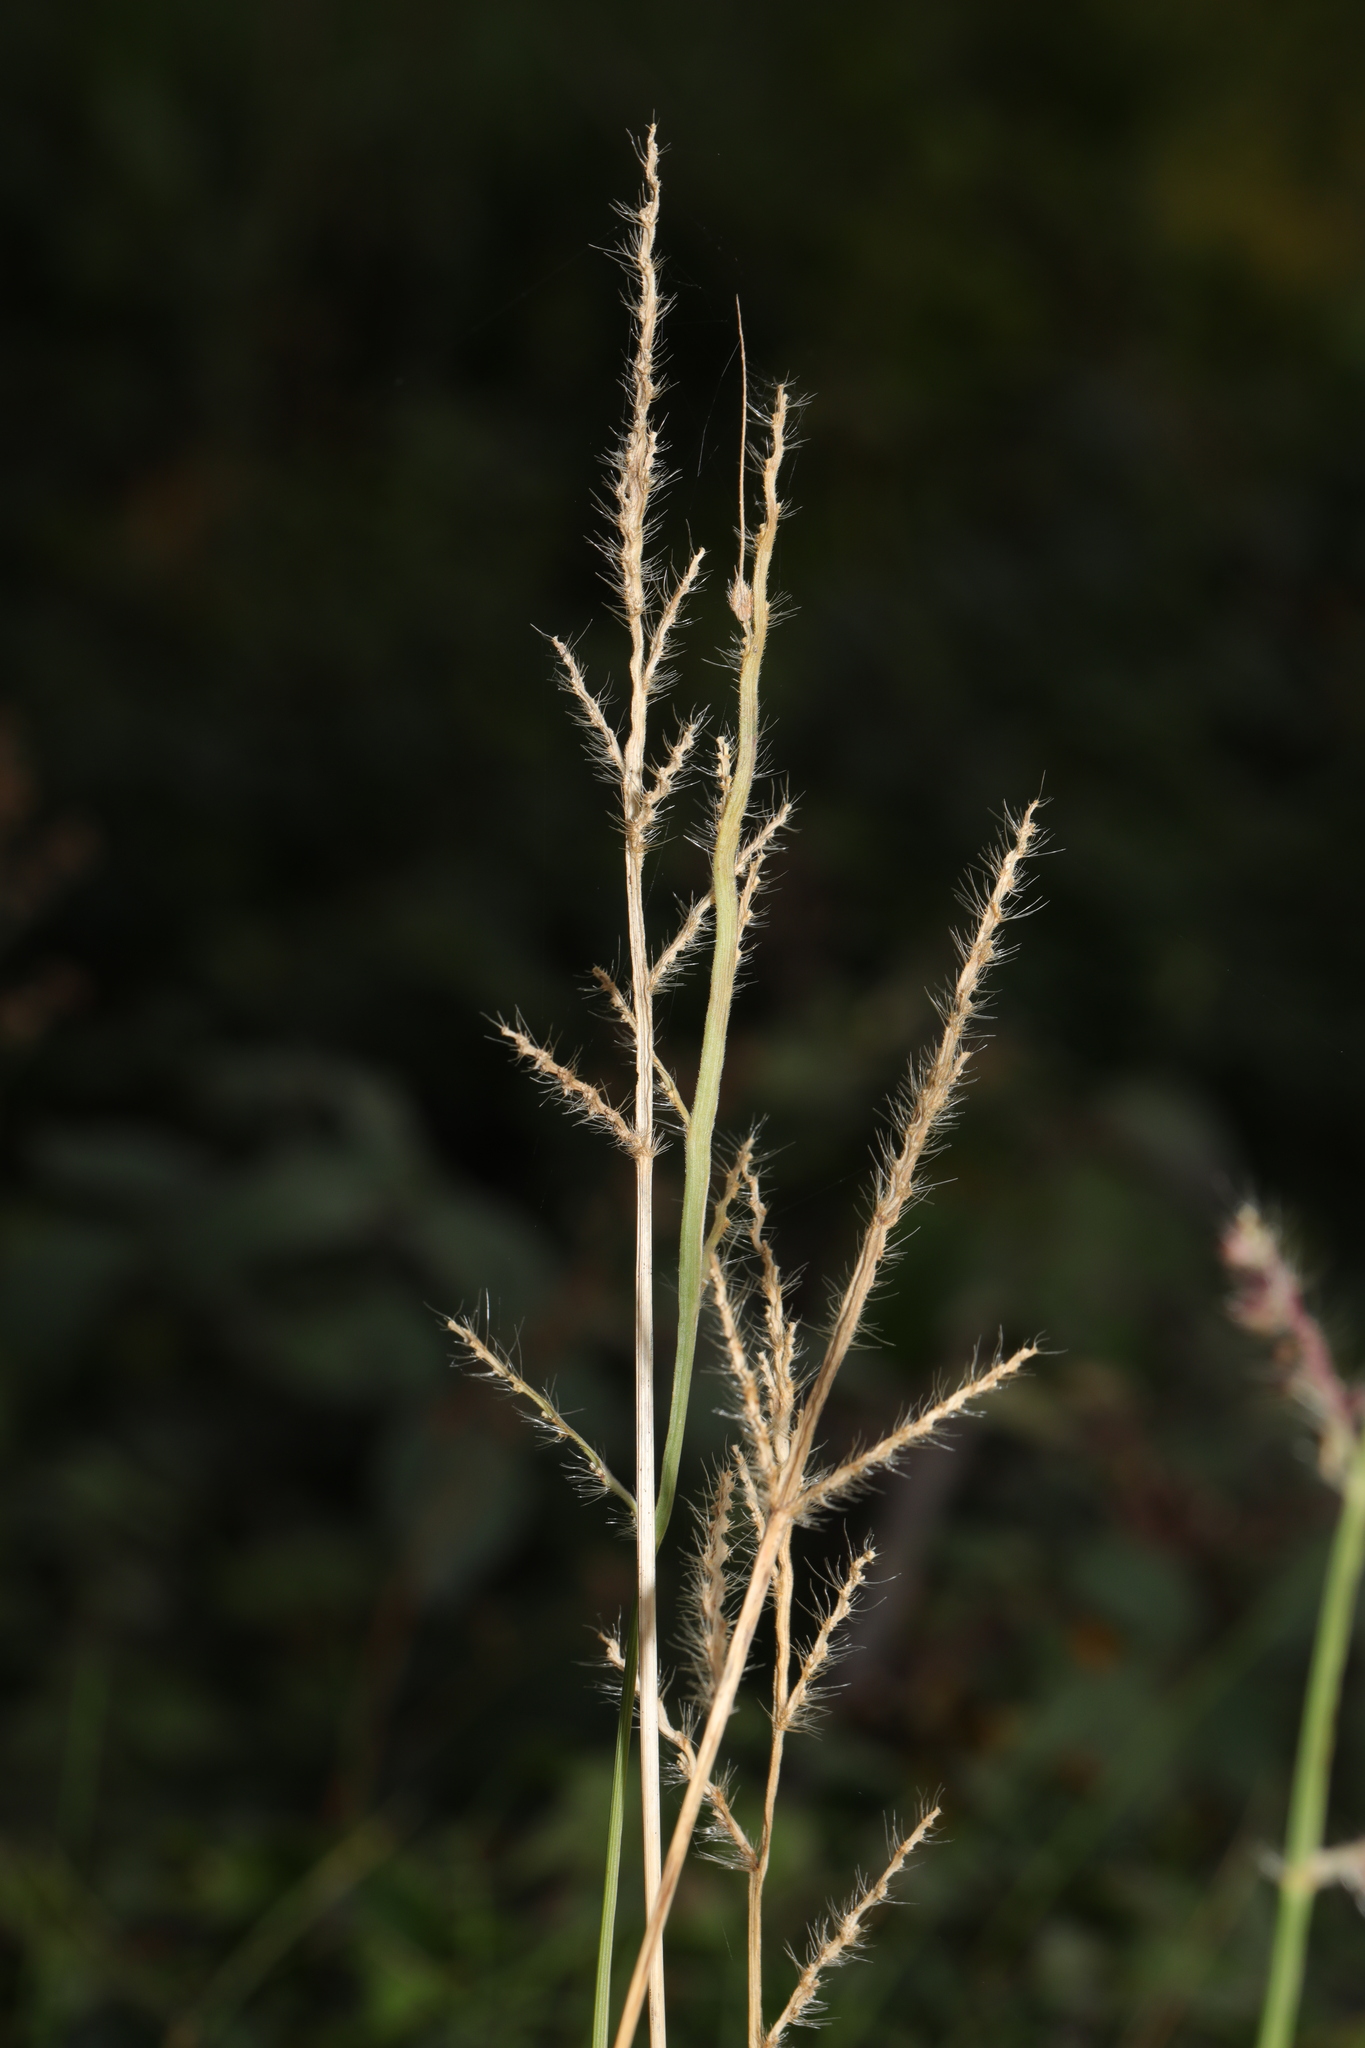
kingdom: Plantae
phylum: Tracheophyta
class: Liliopsida
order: Poales
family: Poaceae
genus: Echinochloa
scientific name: Echinochloa crus-galli
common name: Cockspur
